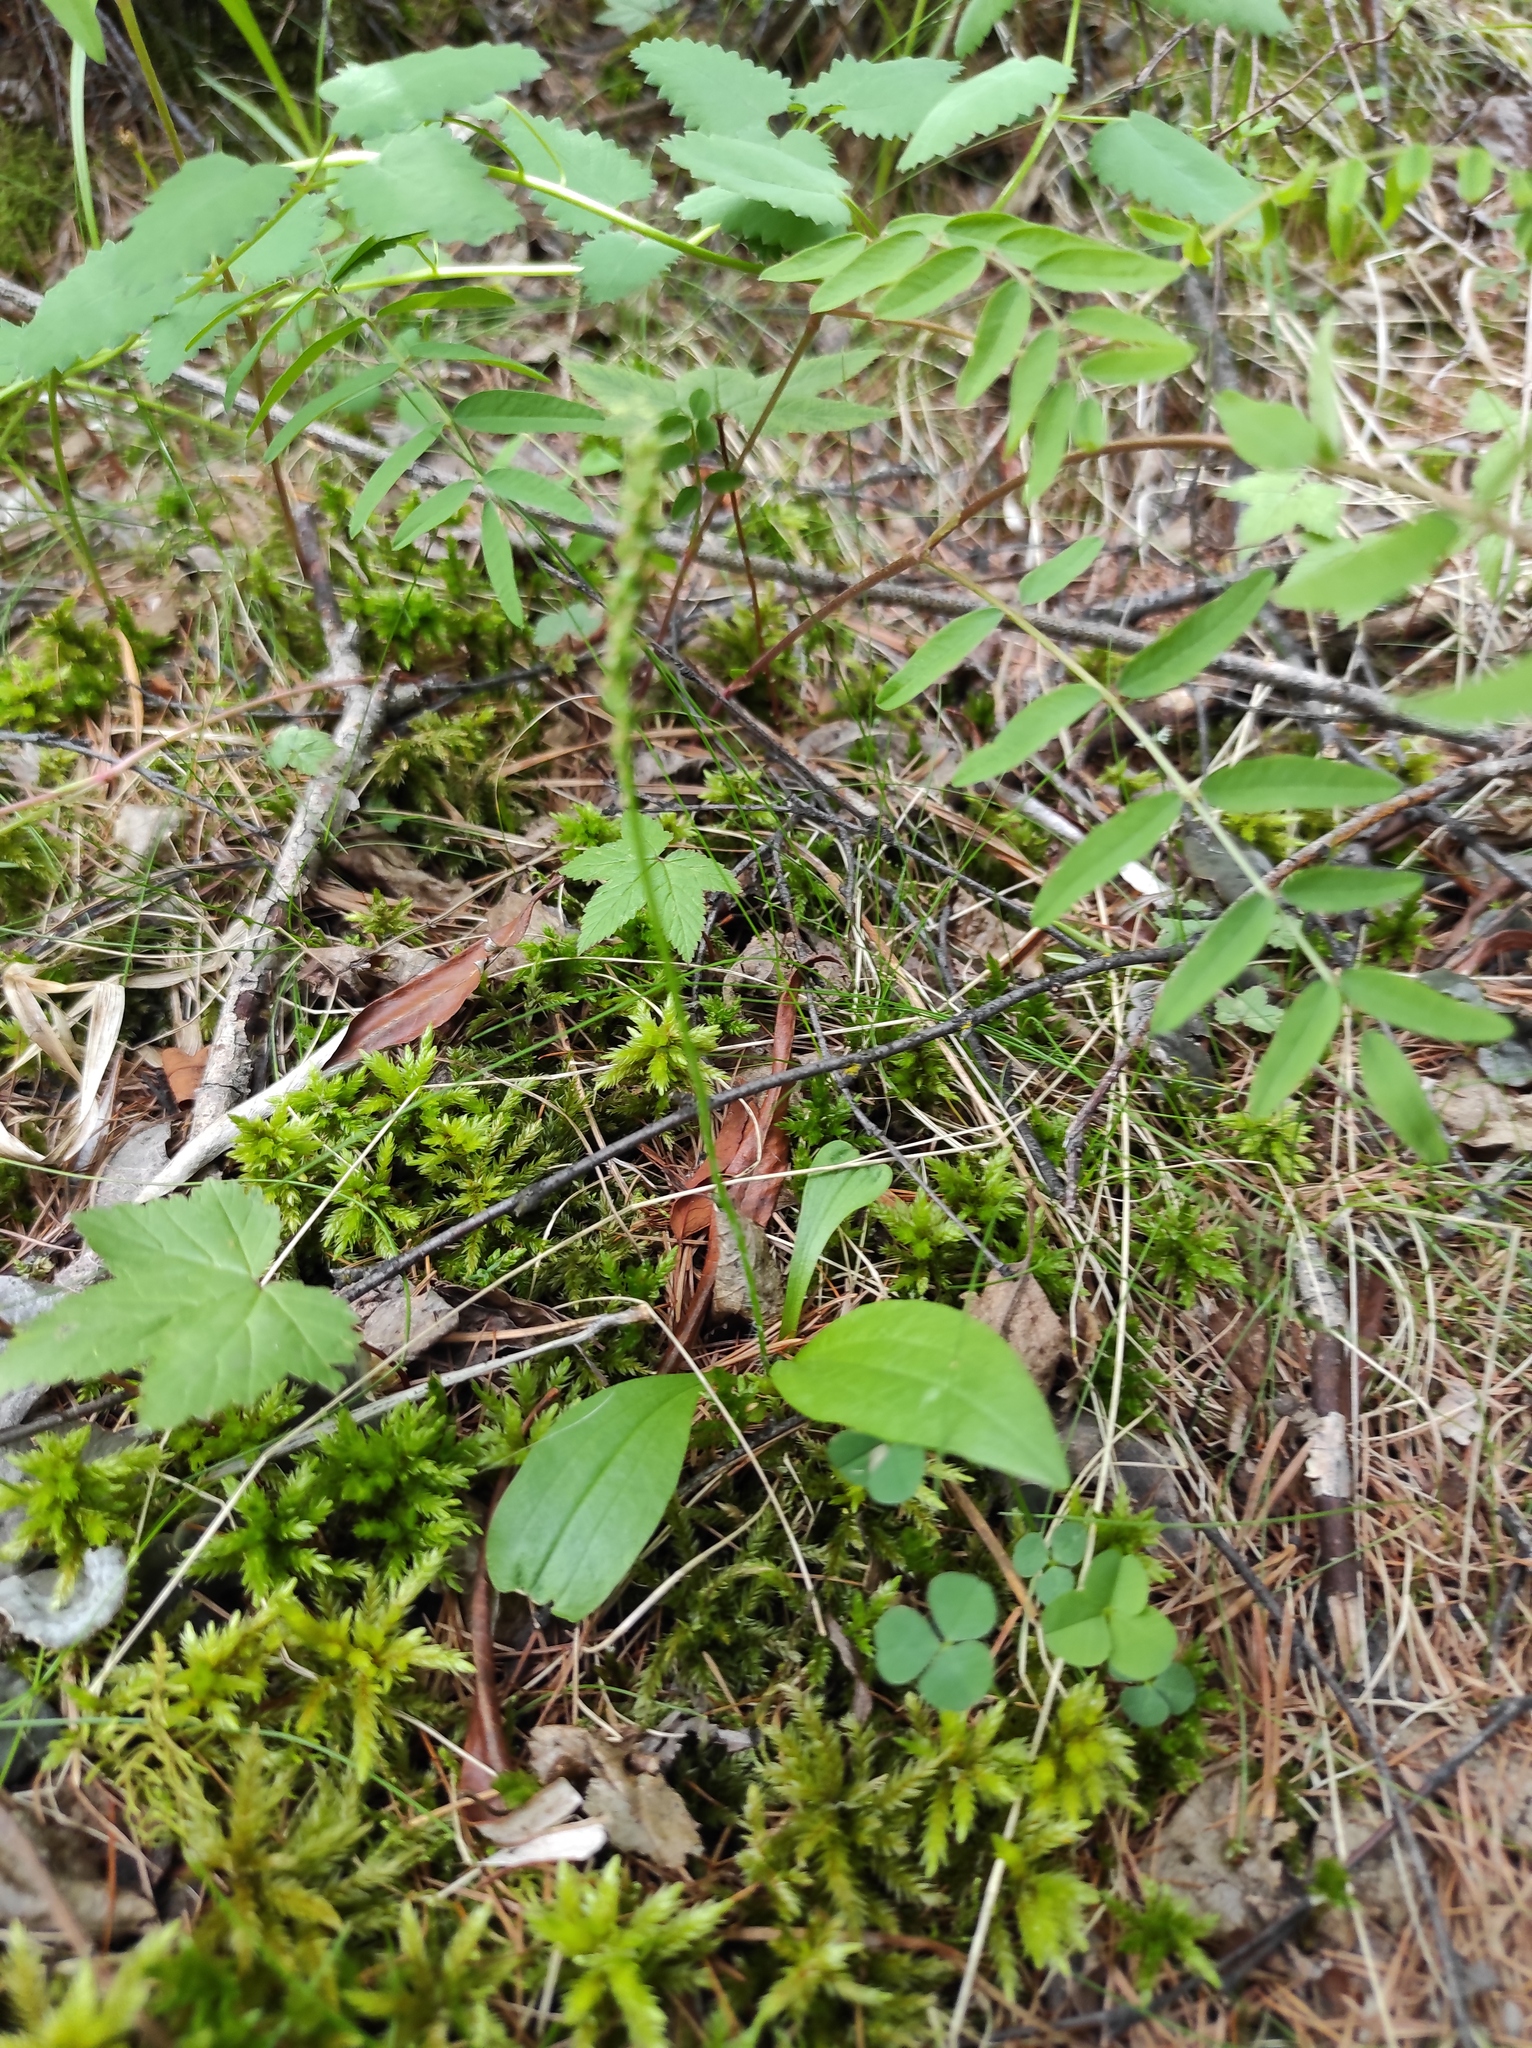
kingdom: Plantae
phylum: Bryophyta
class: Bryopsida
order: Hypnales
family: Climaciaceae
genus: Climacium
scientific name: Climacium dendroides
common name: Northern tree moss
